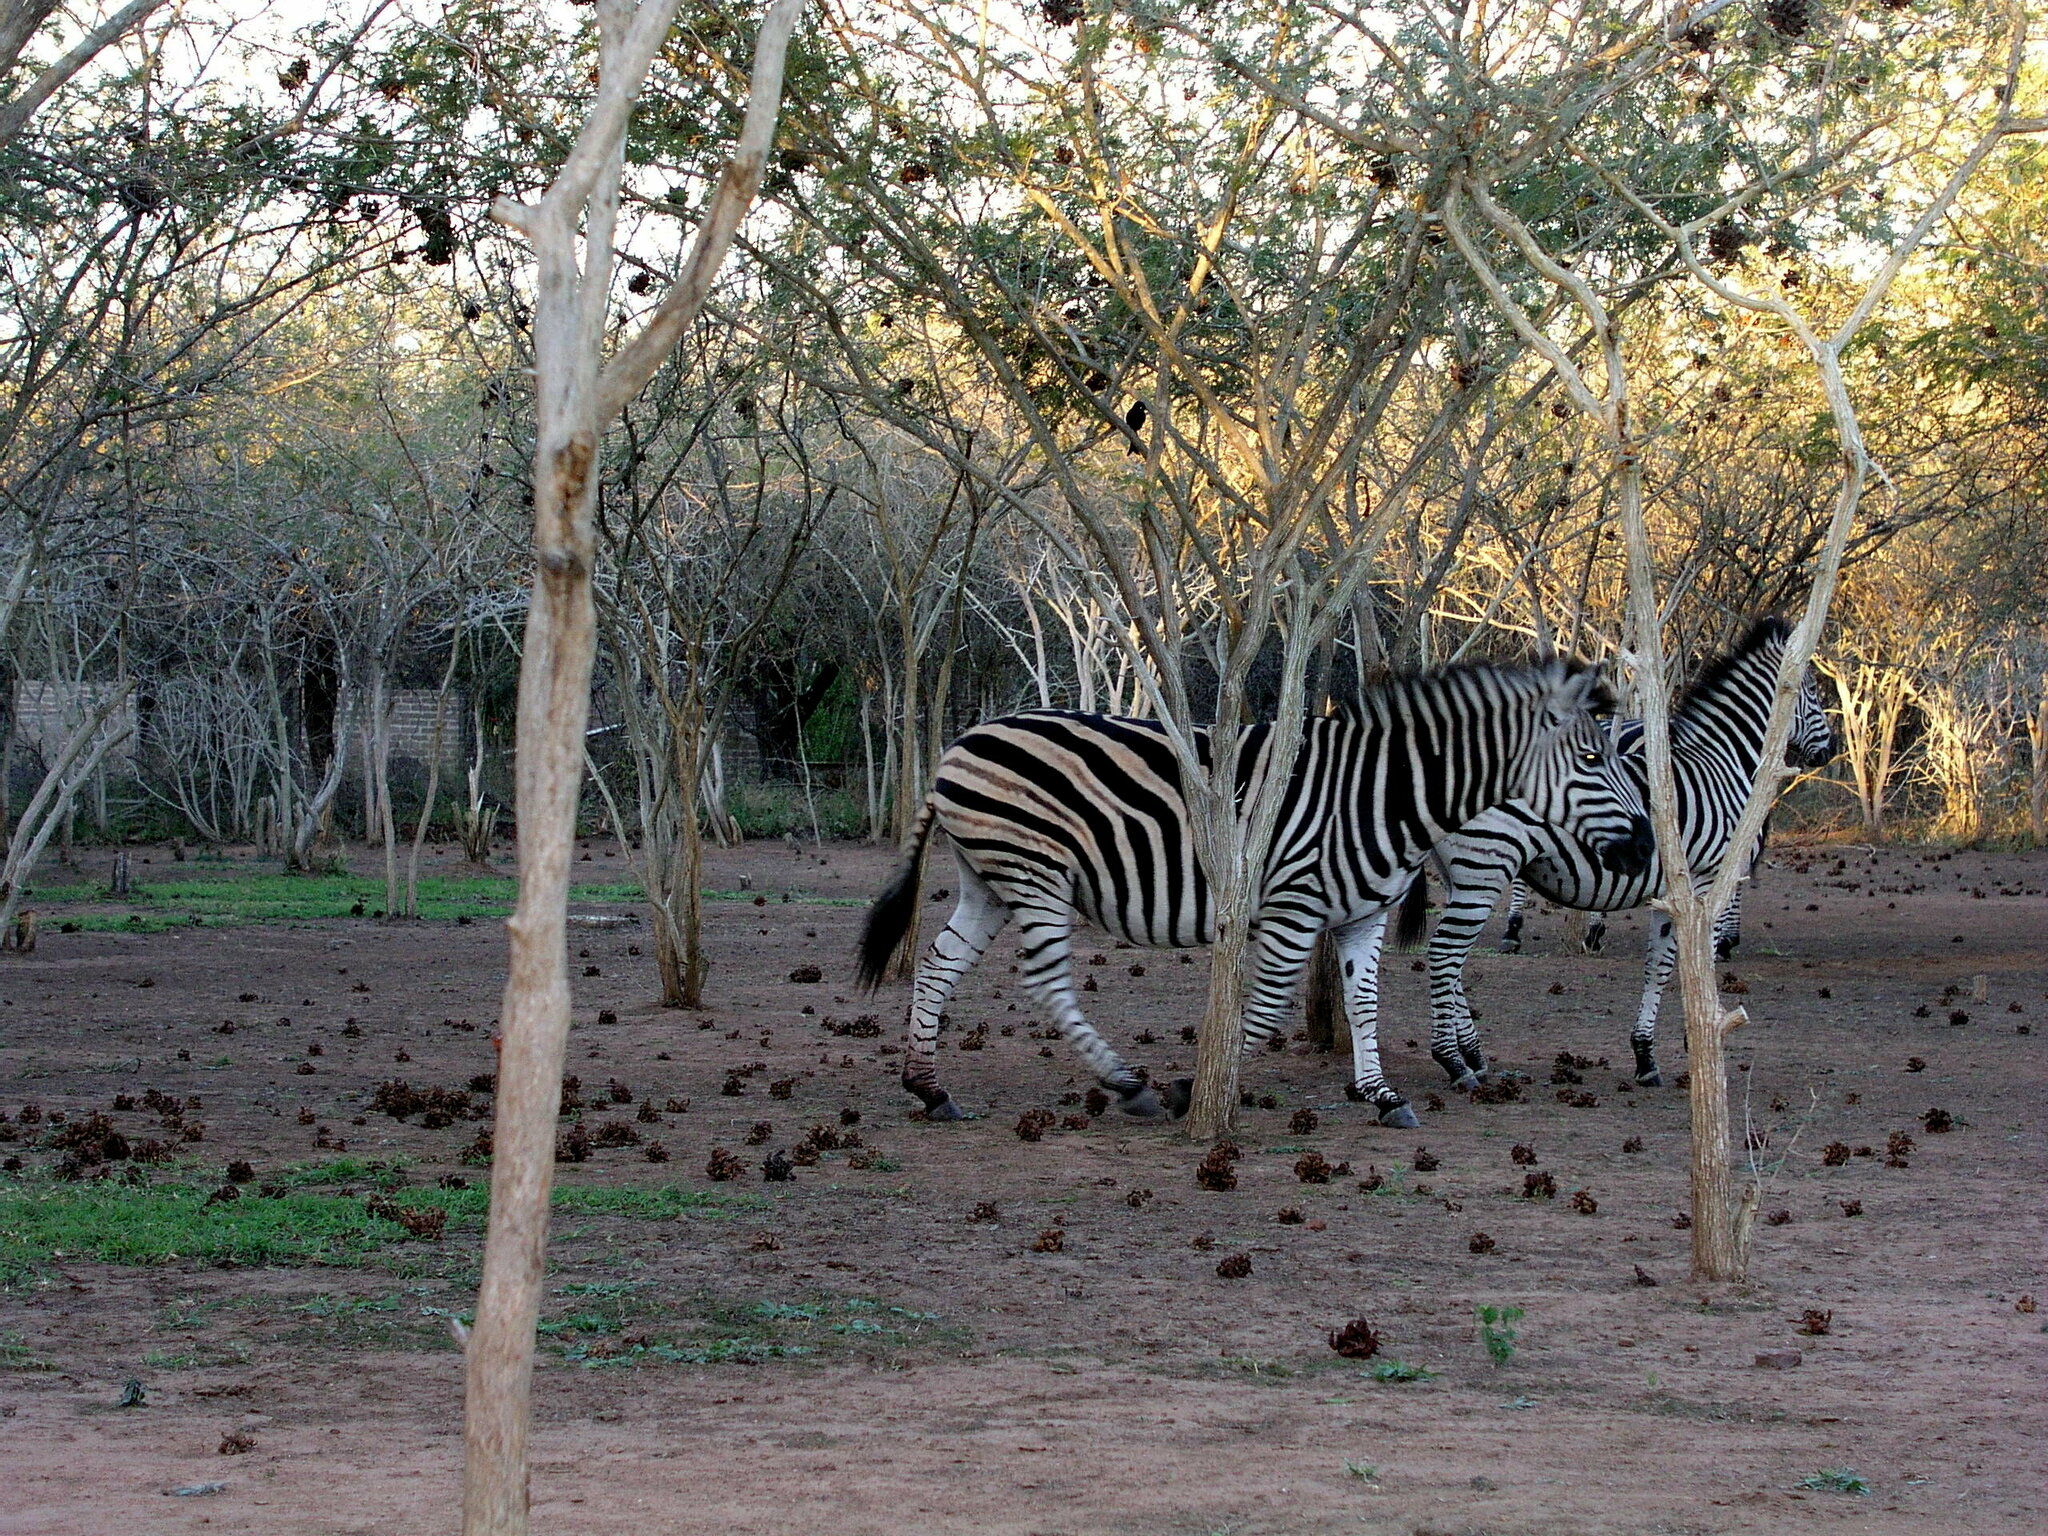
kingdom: Animalia
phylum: Chordata
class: Mammalia
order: Perissodactyla
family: Equidae
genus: Equus
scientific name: Equus quagga
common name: Plains zebra
